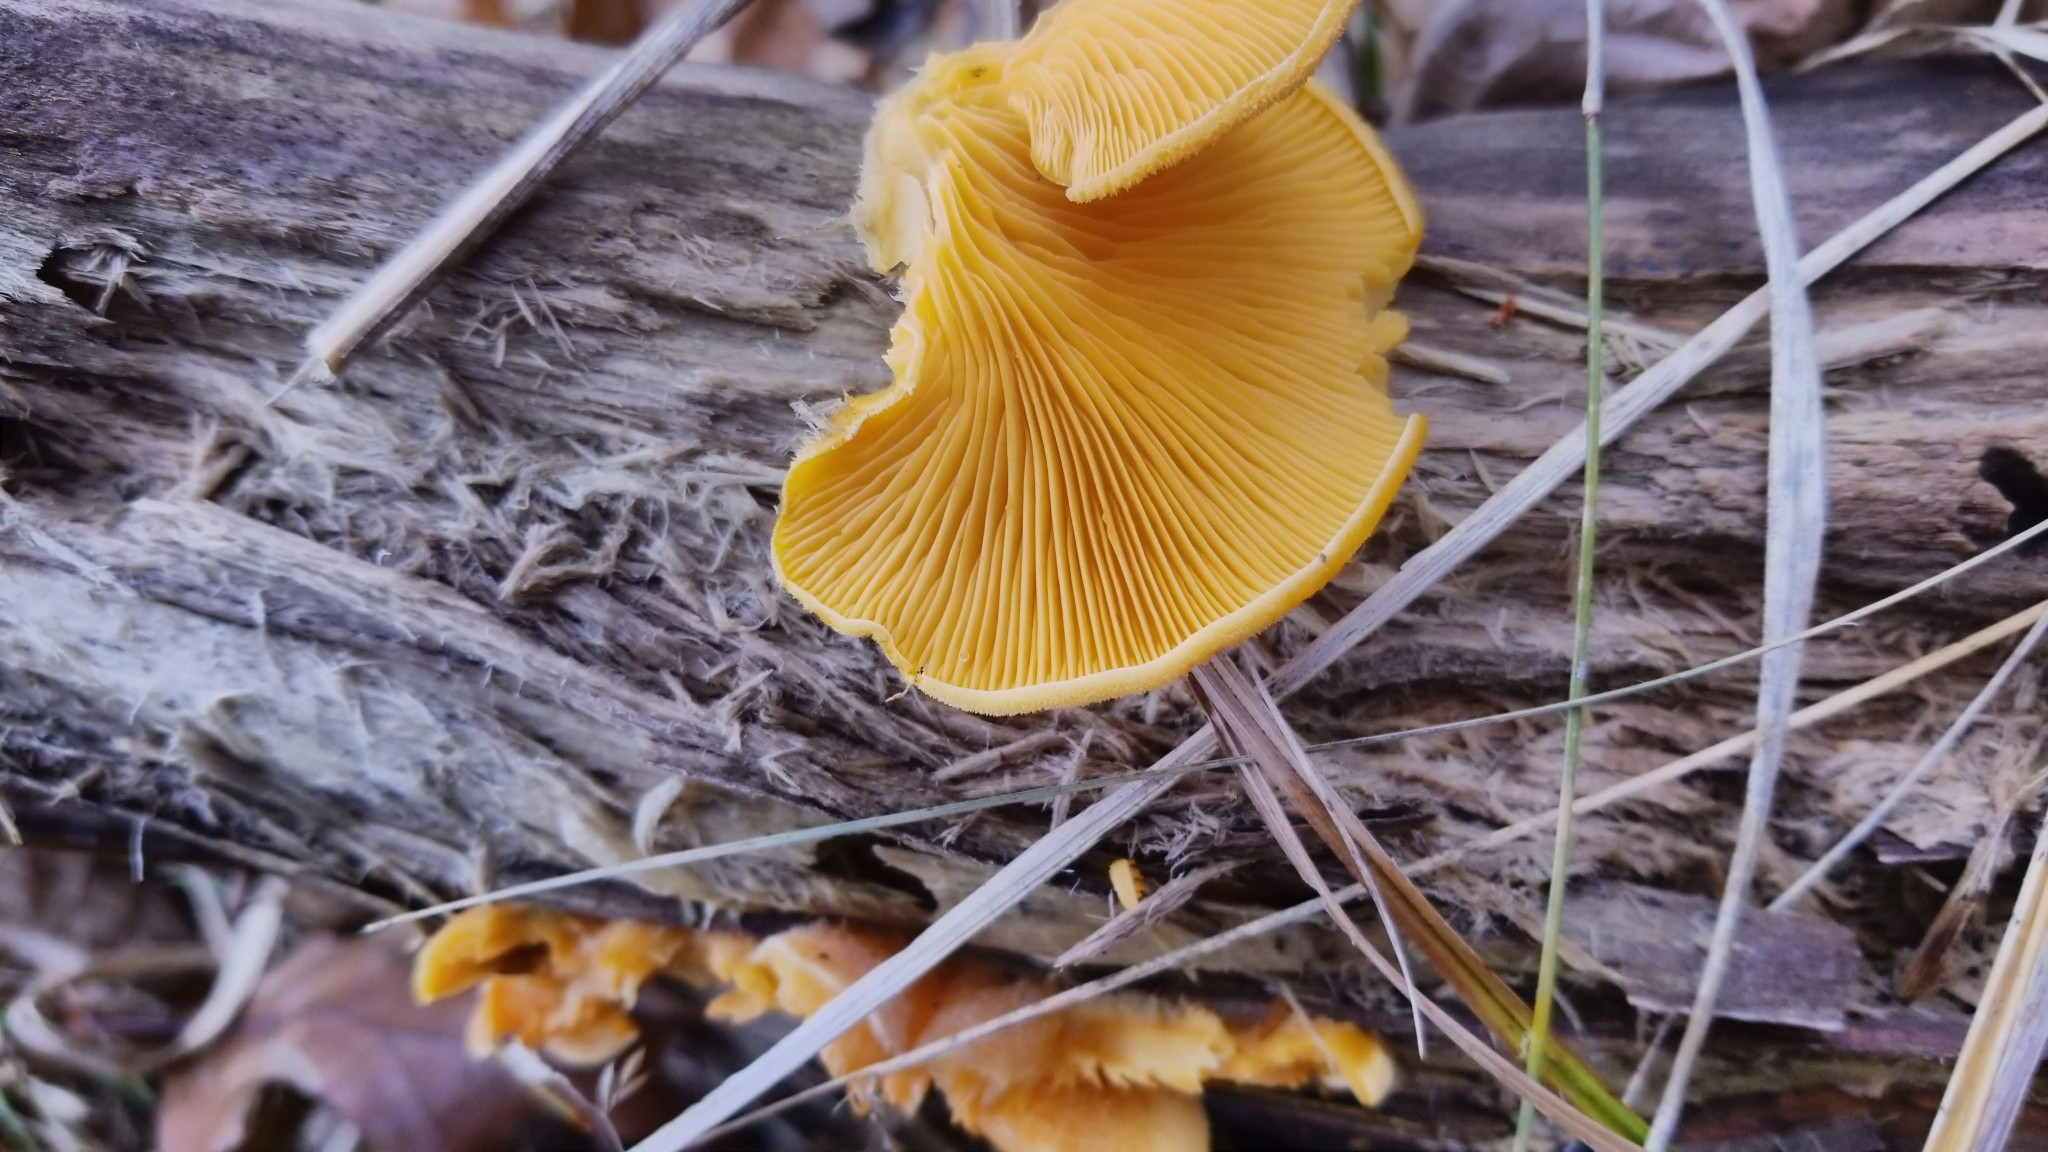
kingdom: Fungi
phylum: Basidiomycota
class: Agaricomycetes
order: Agaricales
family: Phyllotopsidaceae
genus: Phyllotopsis
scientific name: Phyllotopsis nidulans
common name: Orange mock oyster
